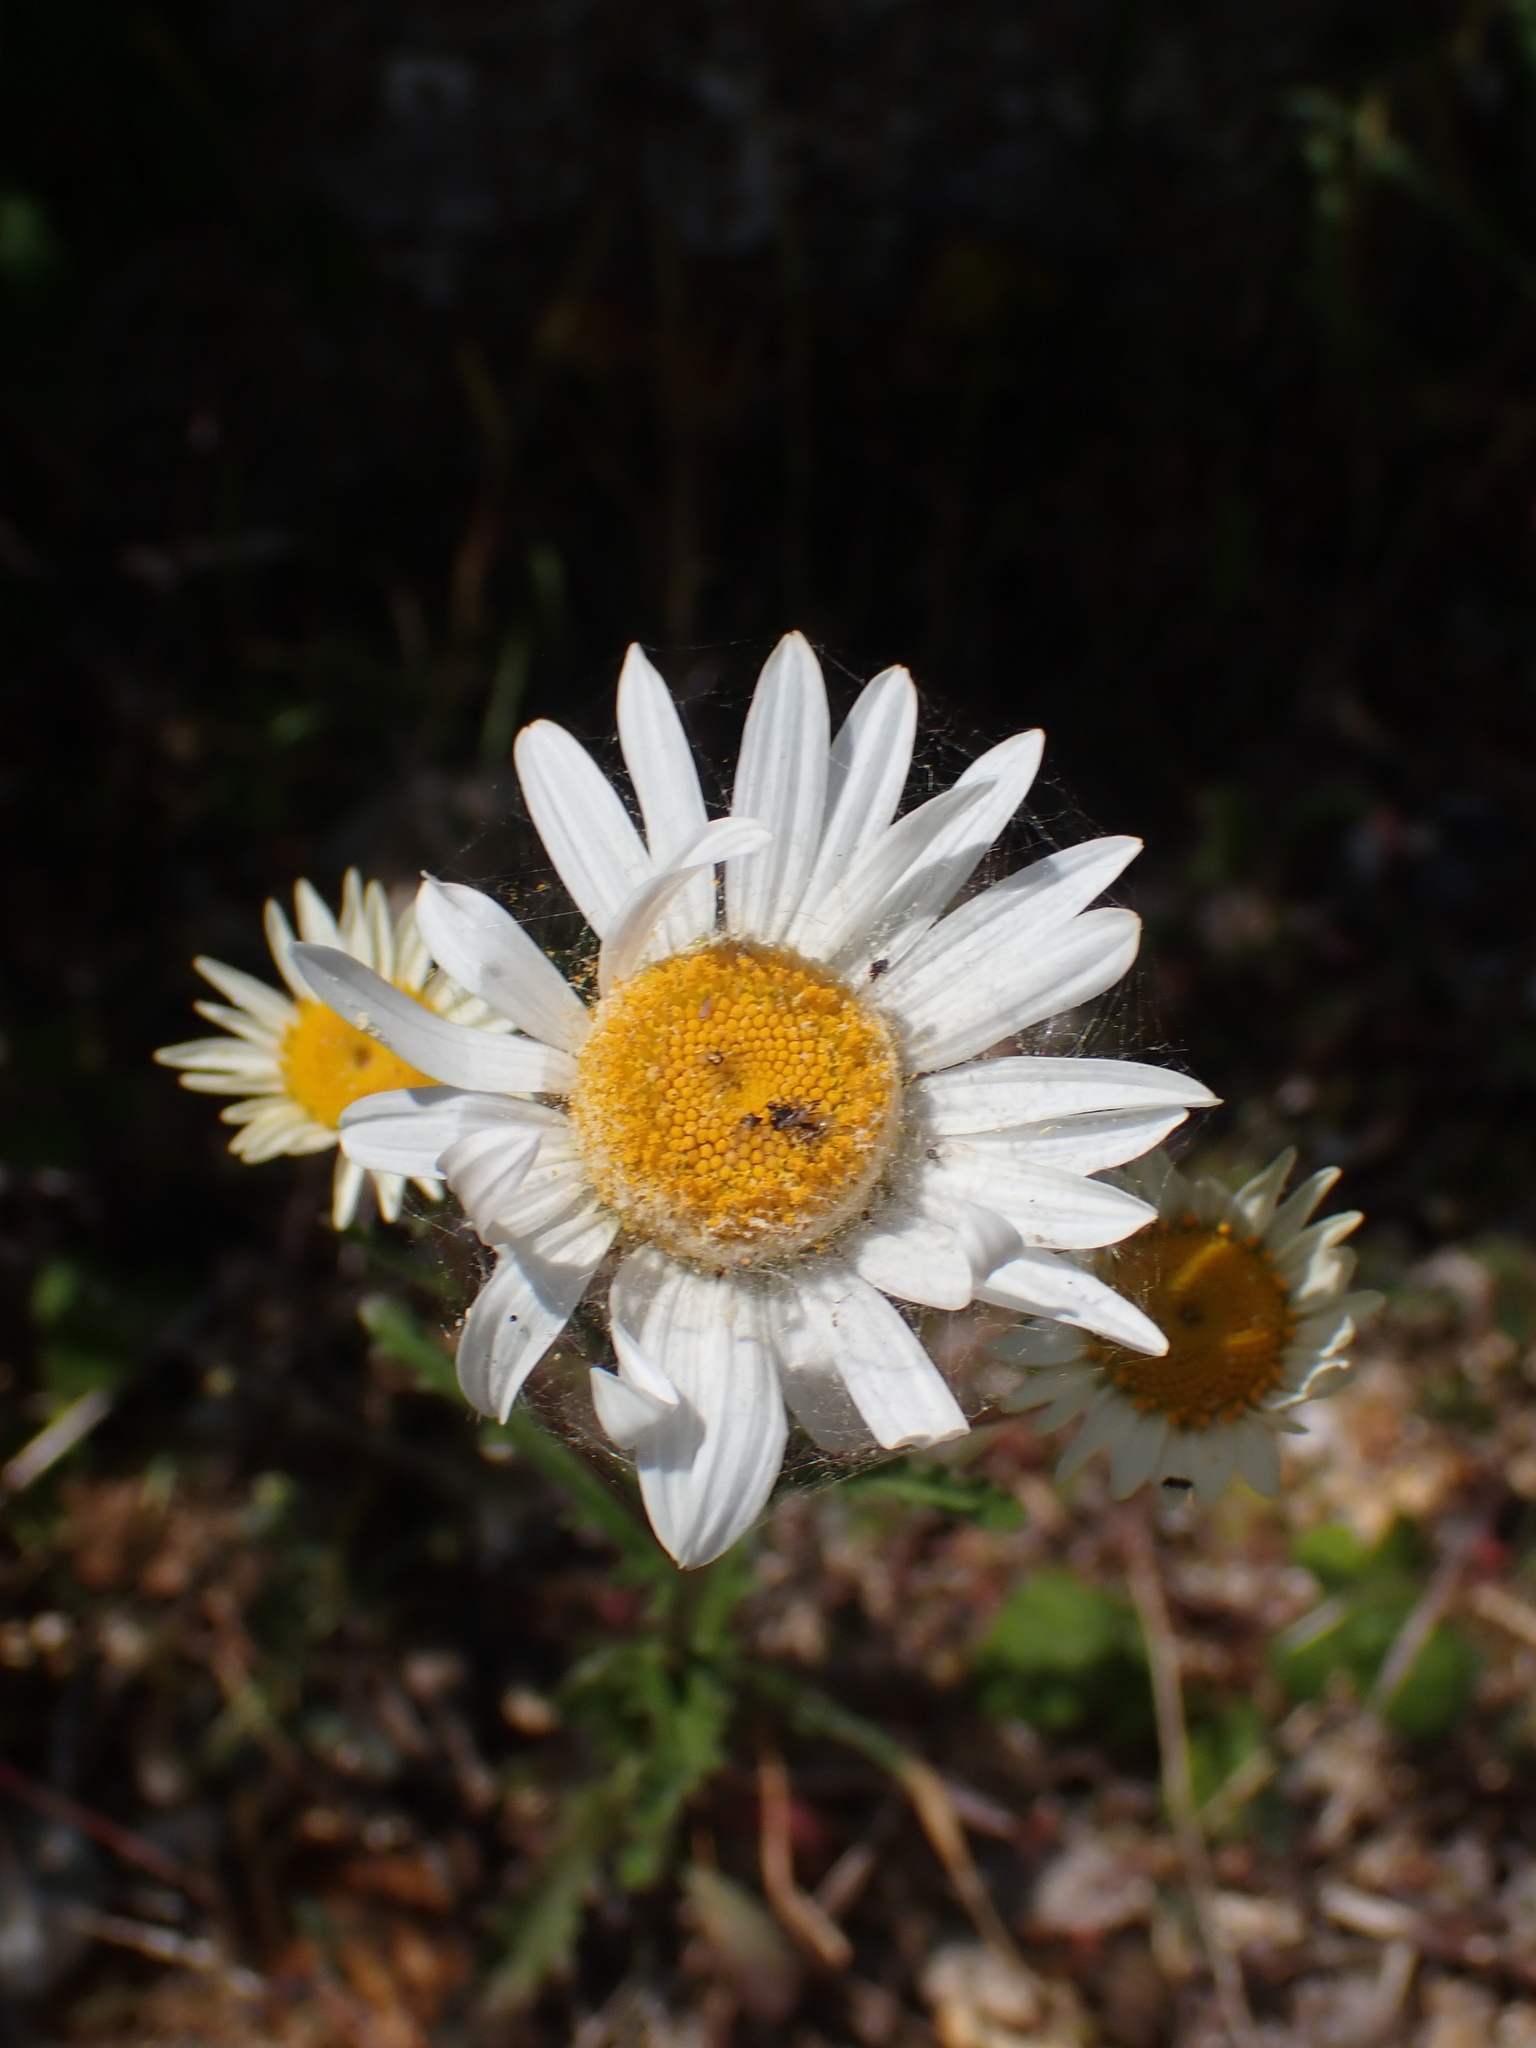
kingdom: Plantae
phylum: Tracheophyta
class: Magnoliopsida
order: Asterales
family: Asteraceae
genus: Leucanthemum
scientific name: Leucanthemum vulgare
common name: Oxeye daisy
